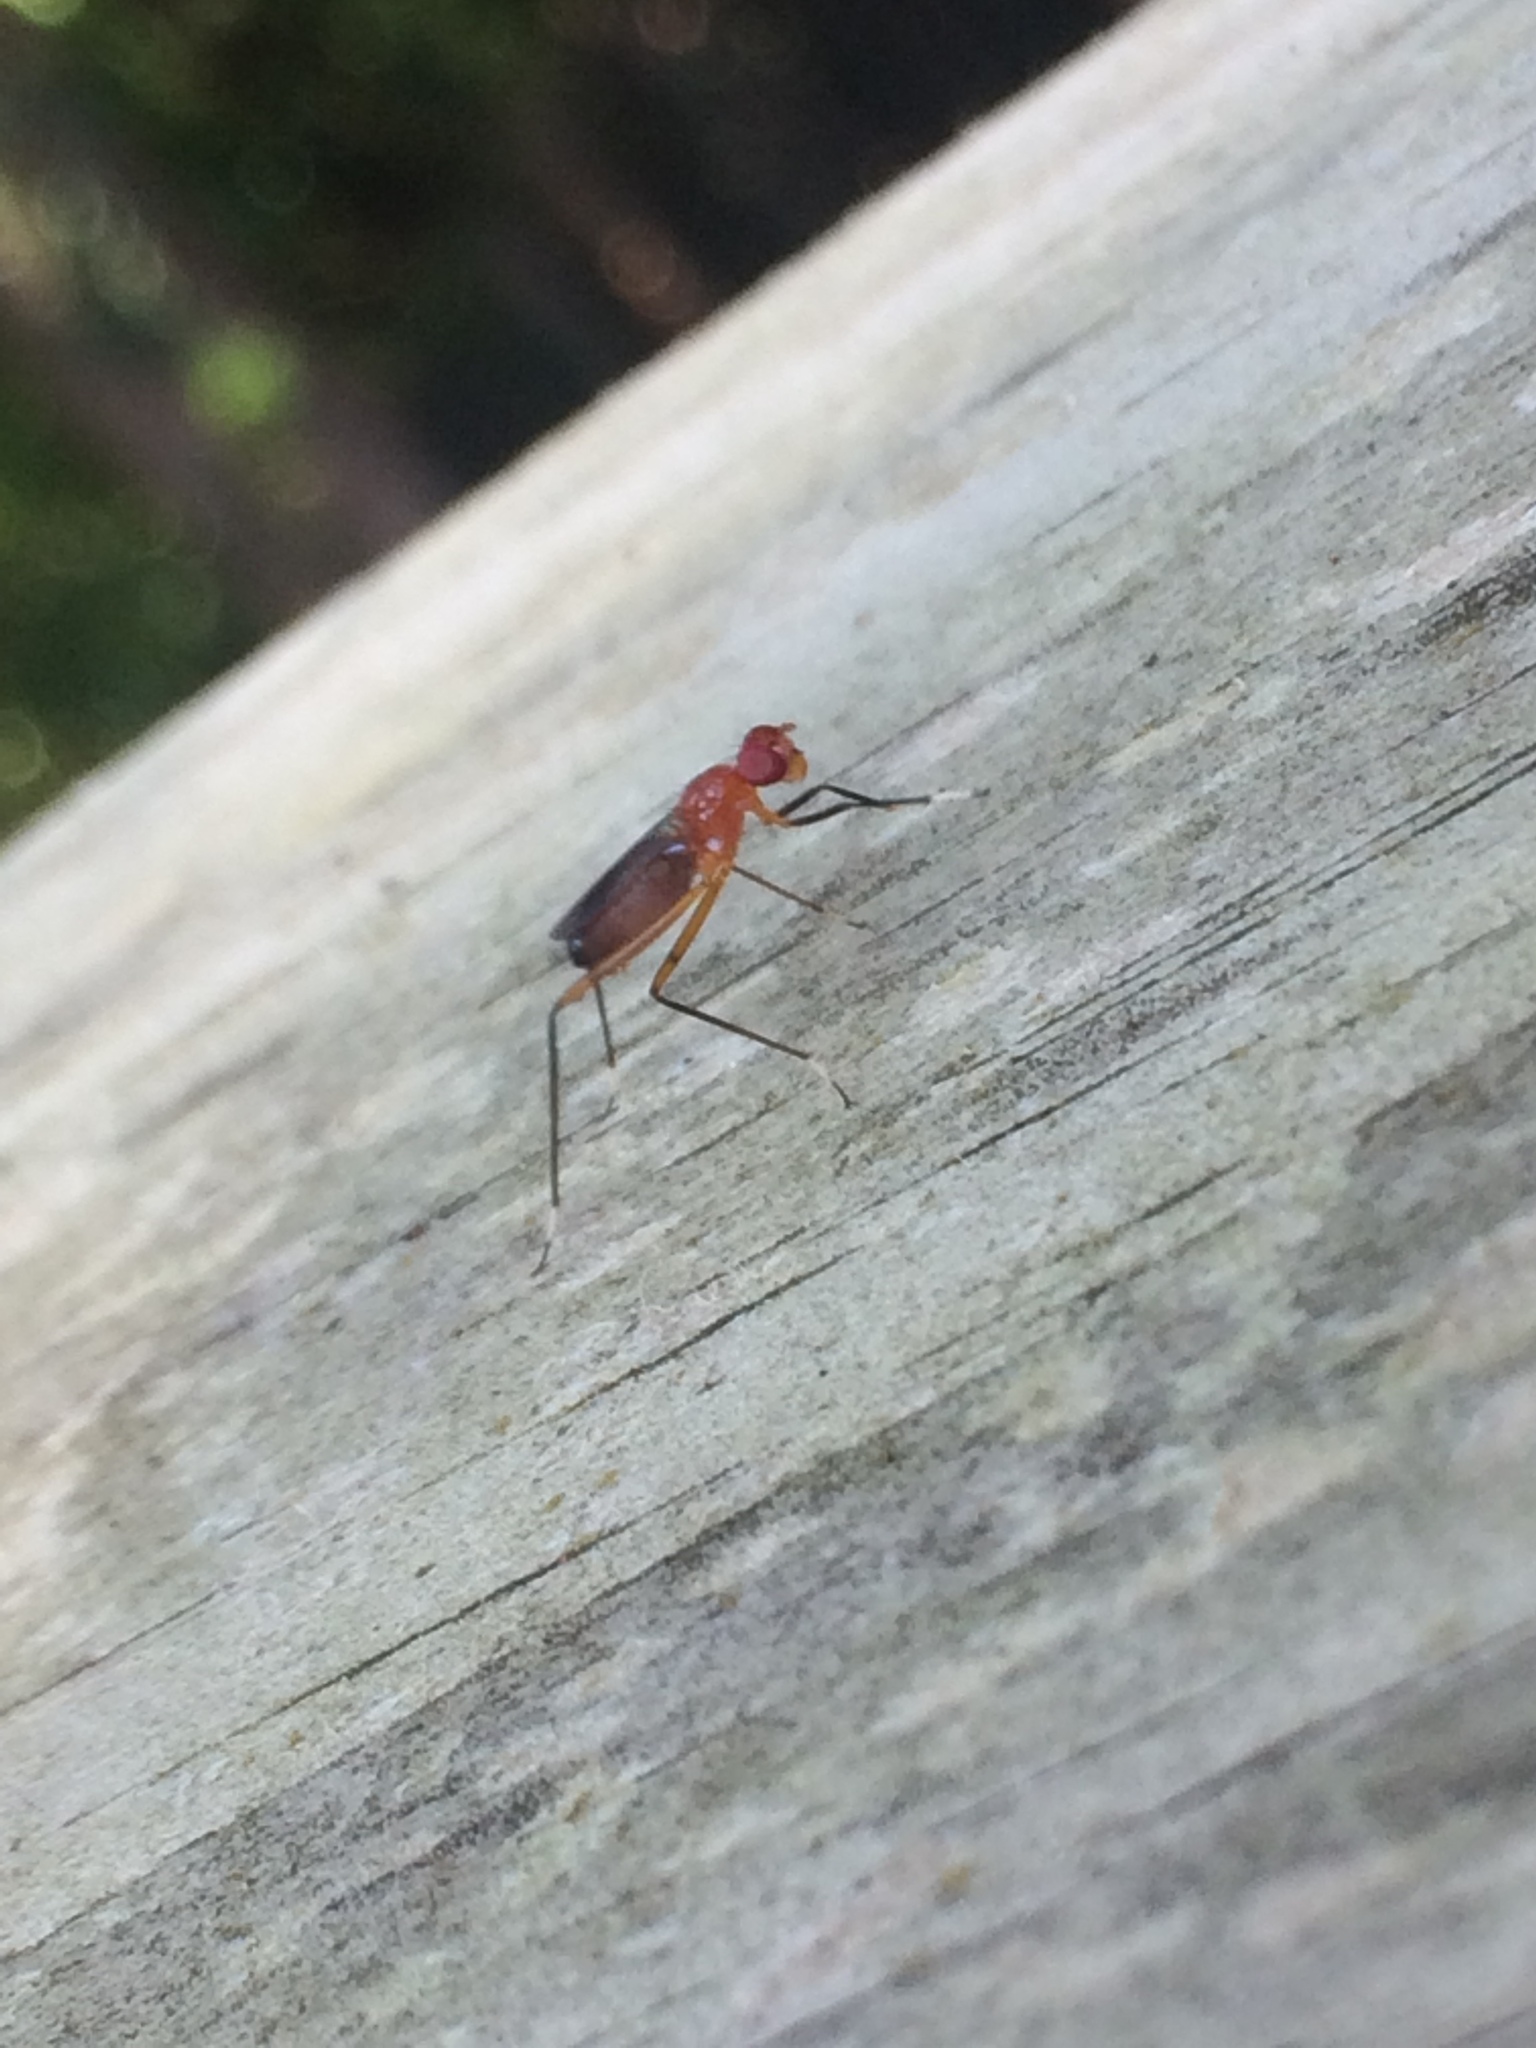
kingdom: Animalia
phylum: Arthropoda
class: Insecta
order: Diptera
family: Micropezidae
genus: Grallipeza
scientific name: Grallipeza nebulosa
